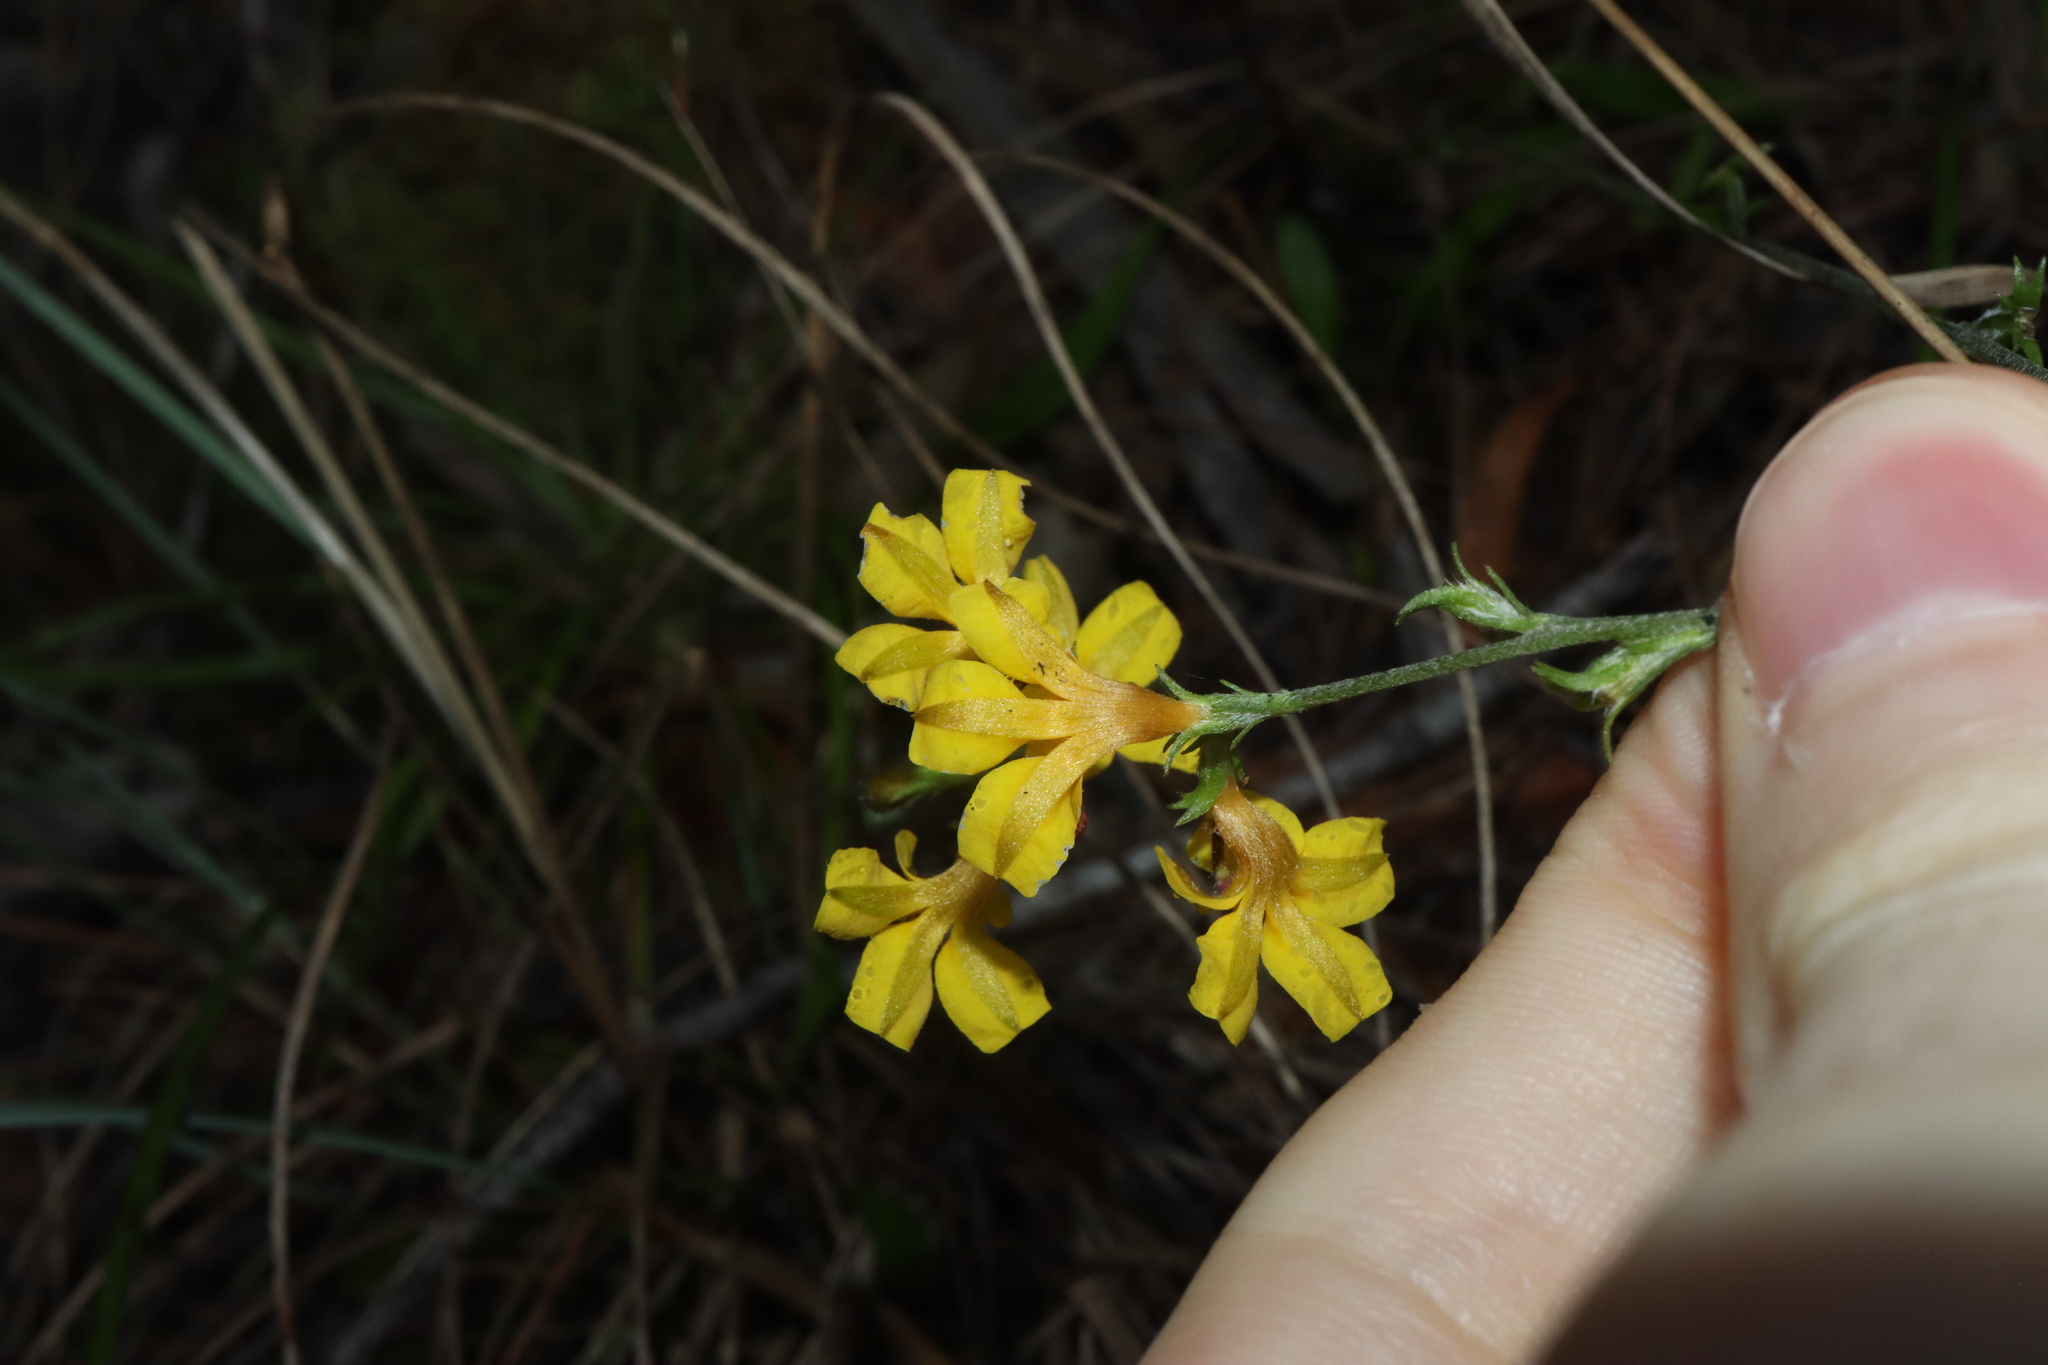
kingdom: Plantae
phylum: Tracheophyta
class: Magnoliopsida
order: Asterales
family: Goodeniaceae
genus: Goodenia
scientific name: Goodenia bellidifolia
